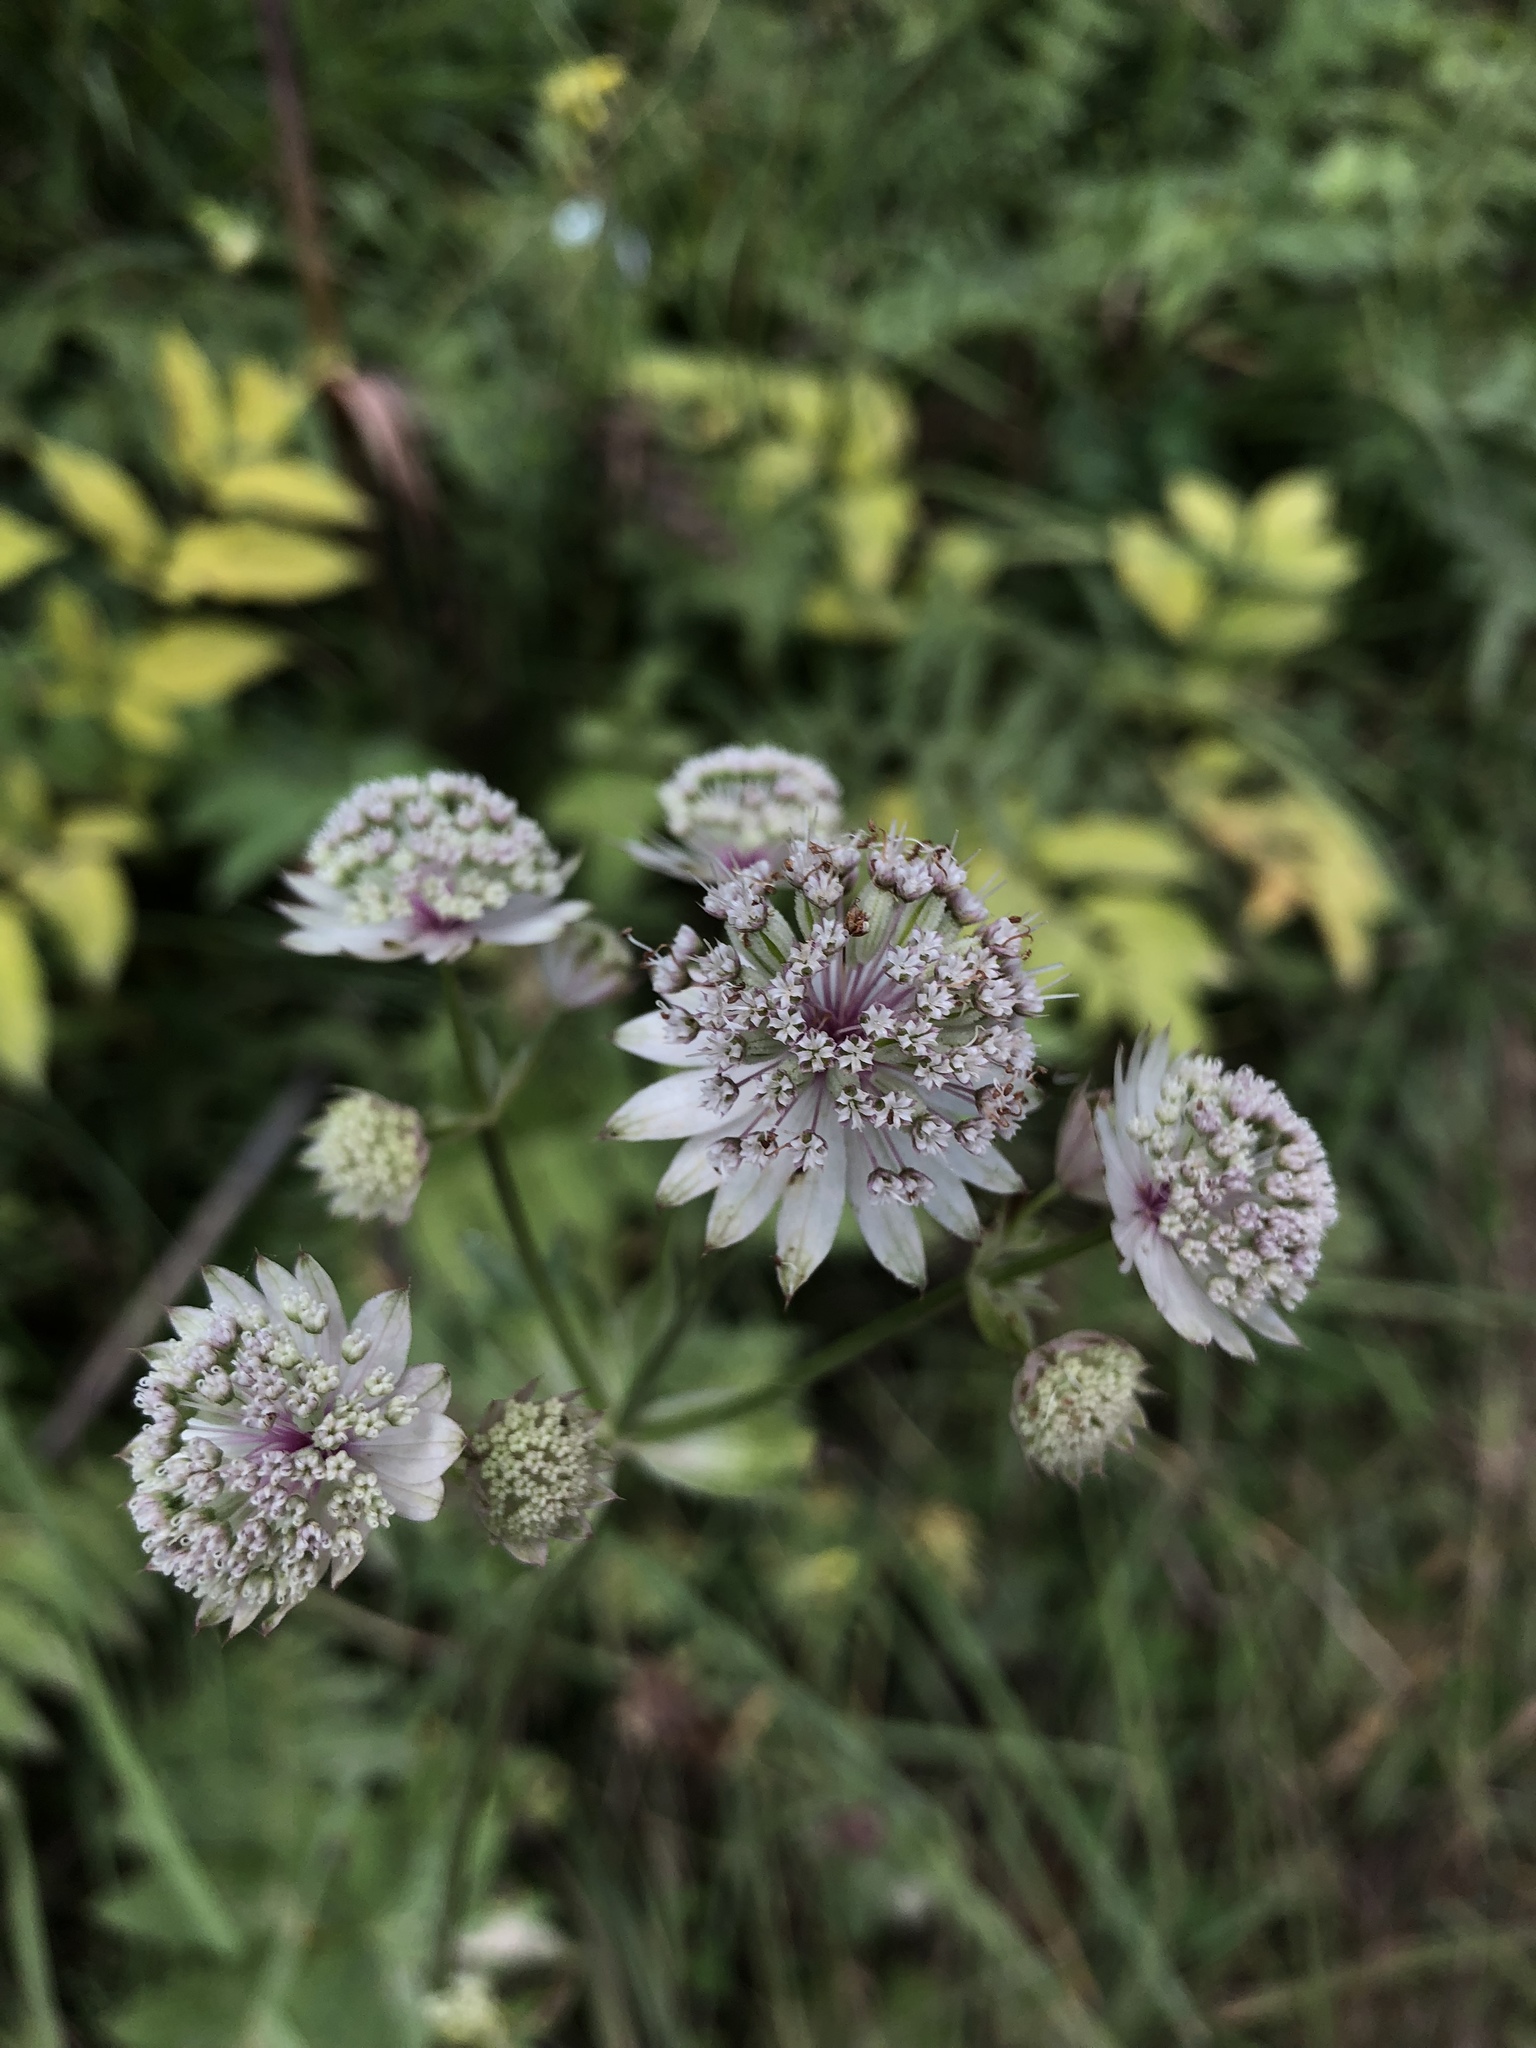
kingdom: Plantae
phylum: Tracheophyta
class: Magnoliopsida
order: Apiales
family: Apiaceae
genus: Astrantia
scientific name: Astrantia major
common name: Greater masterwort
